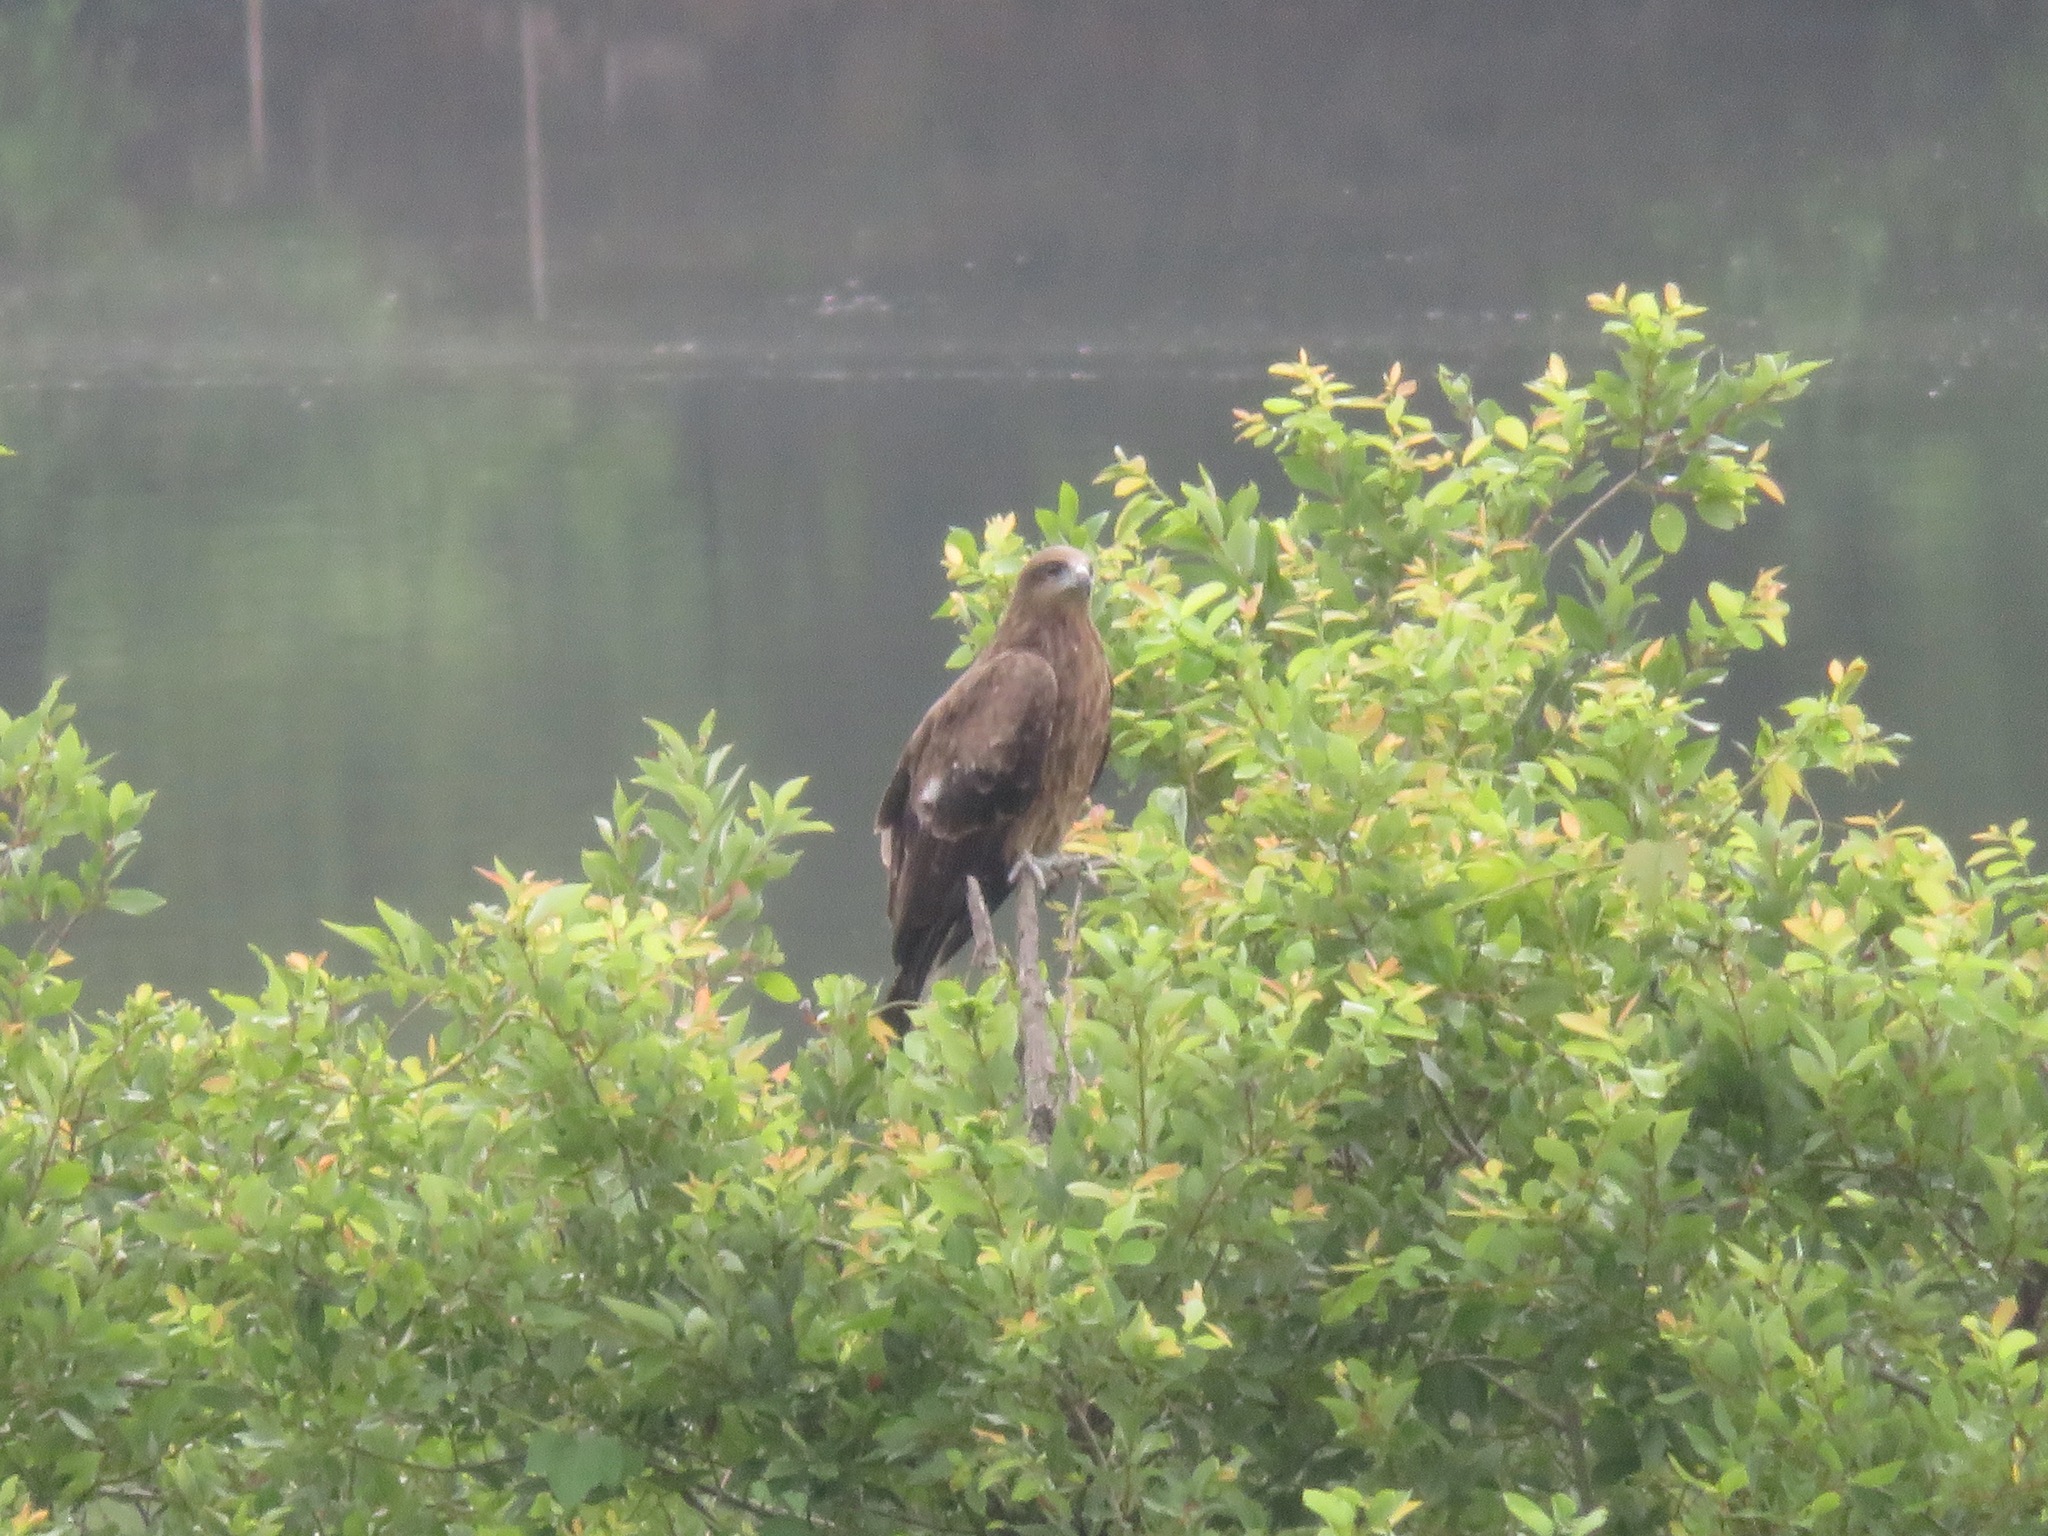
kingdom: Animalia
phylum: Chordata
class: Aves
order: Accipitriformes
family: Accipitridae
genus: Milvus
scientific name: Milvus migrans
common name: Black kite
